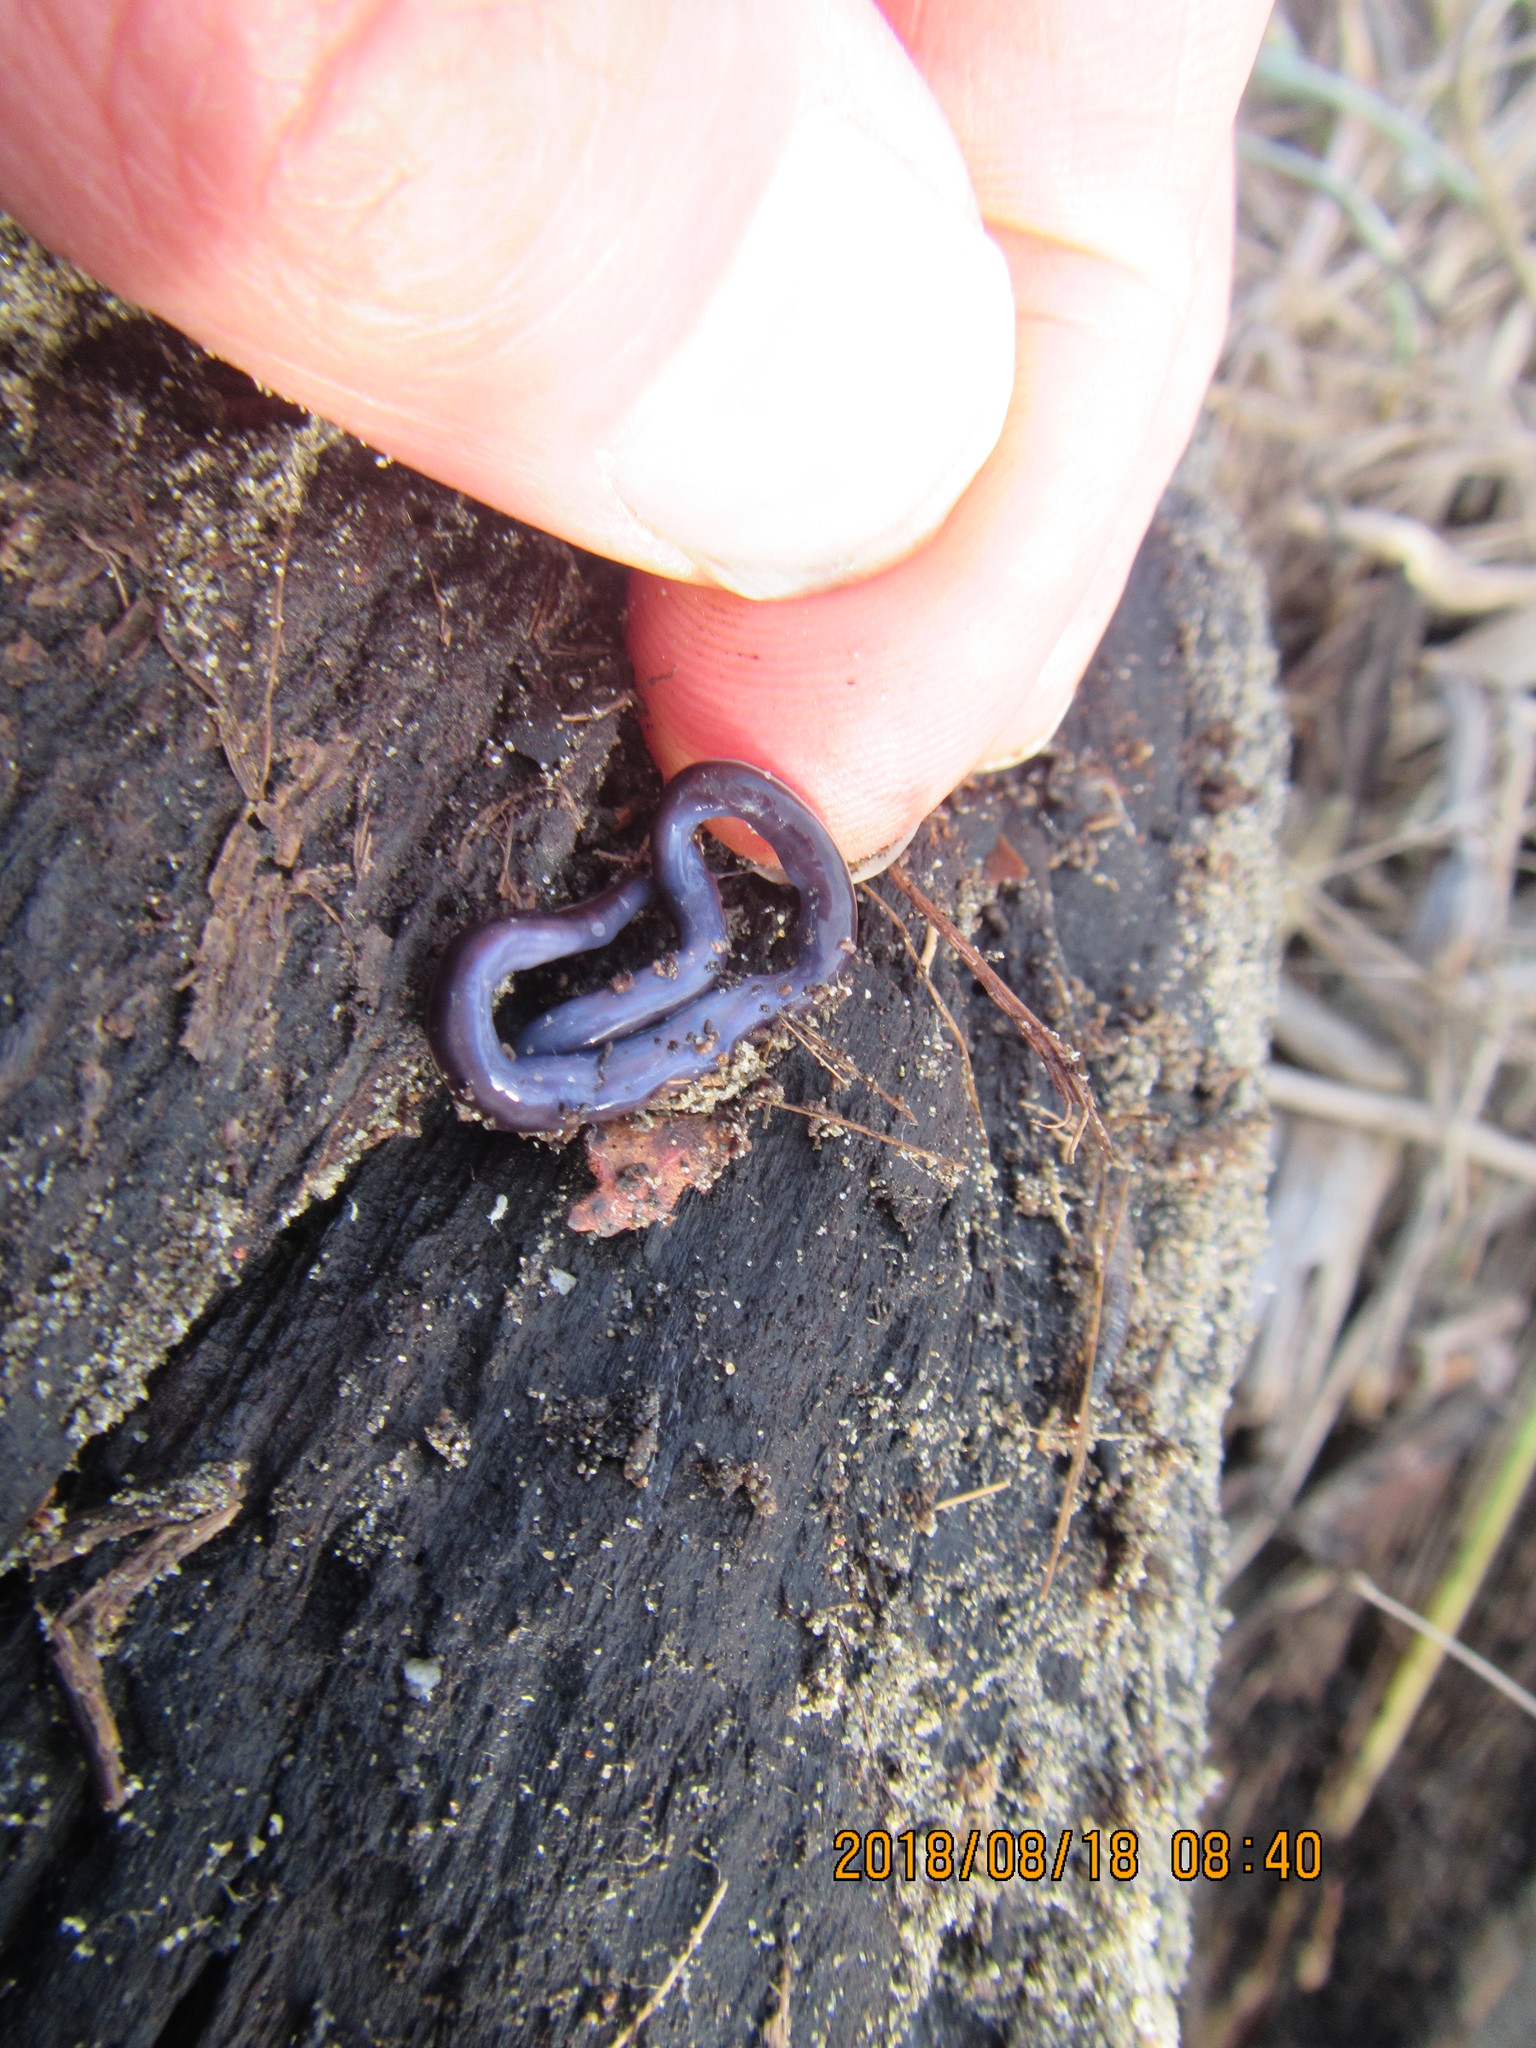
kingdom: Animalia
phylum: Platyhelminthes
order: Tricladida
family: Geoplanidae
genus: Caenoplana
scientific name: Caenoplana coerulea
